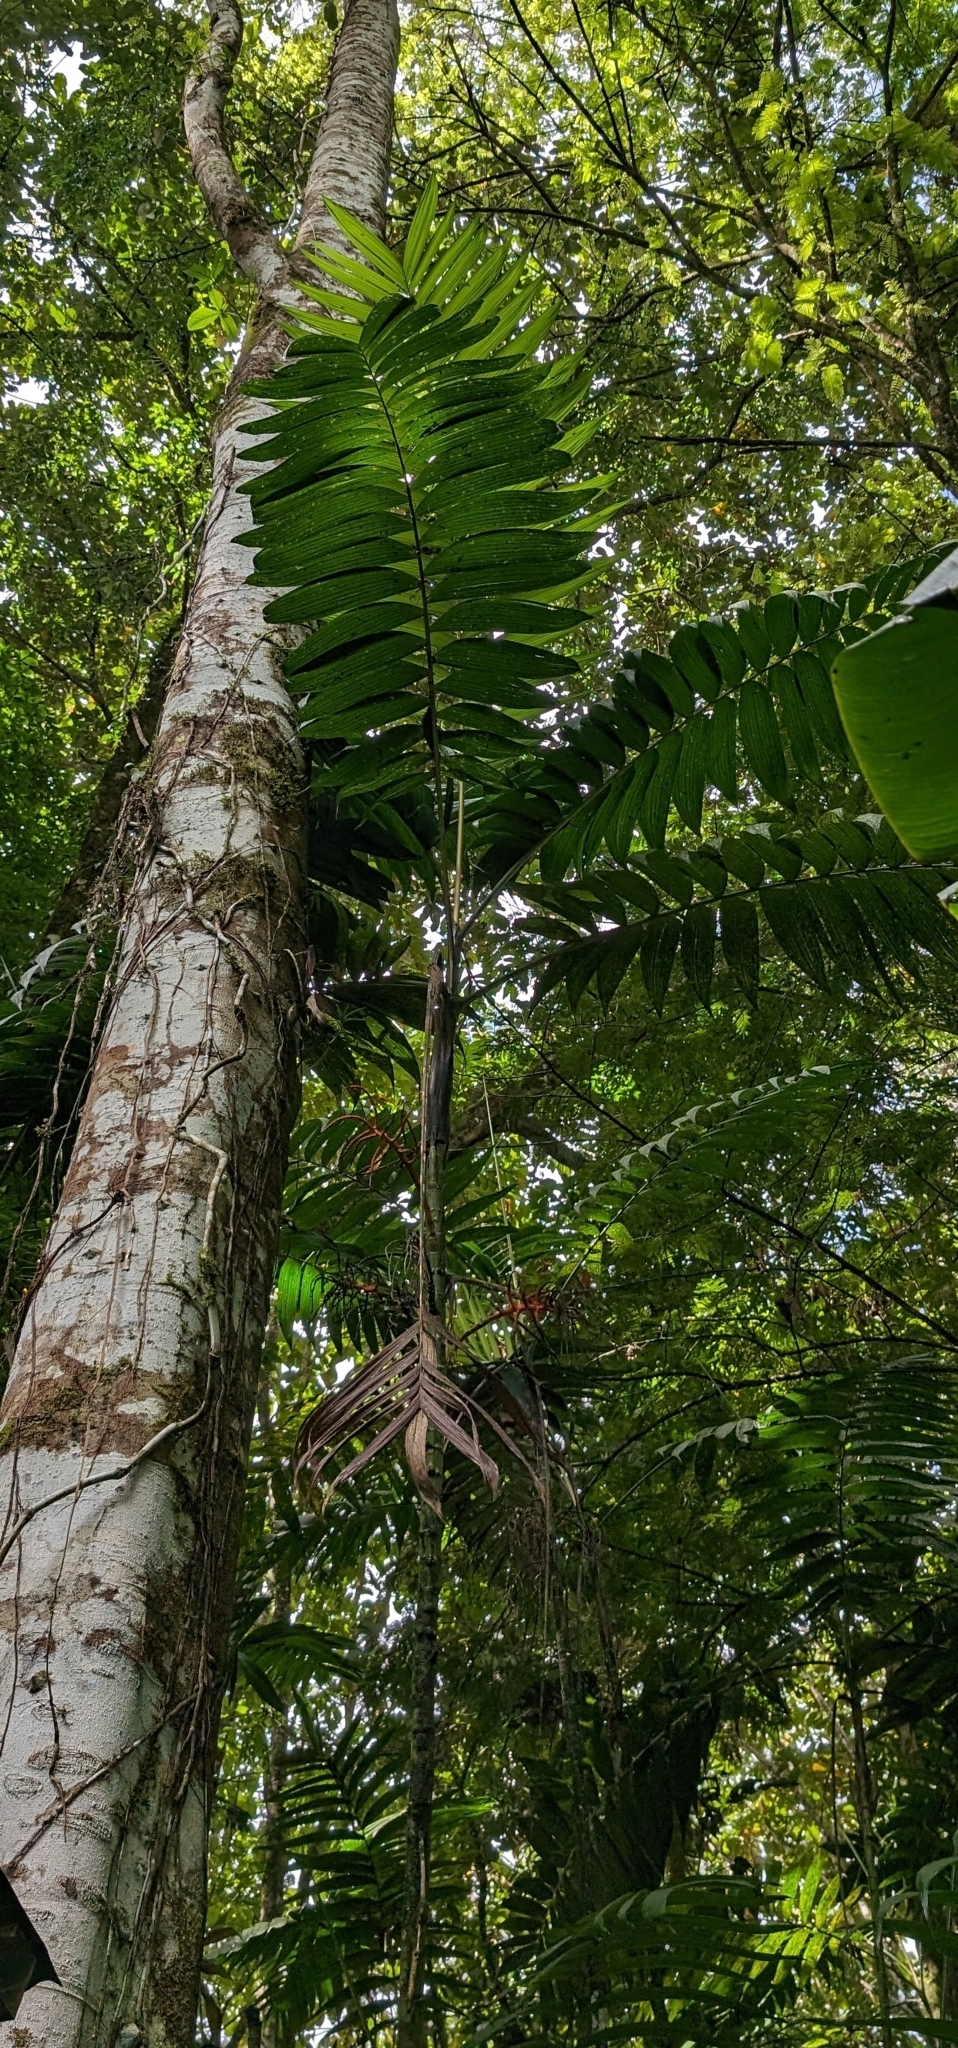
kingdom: Plantae
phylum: Tracheophyta
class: Liliopsida
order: Arecales
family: Arecaceae
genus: Chamaedorea
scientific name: Chamaedorea tepejilote
